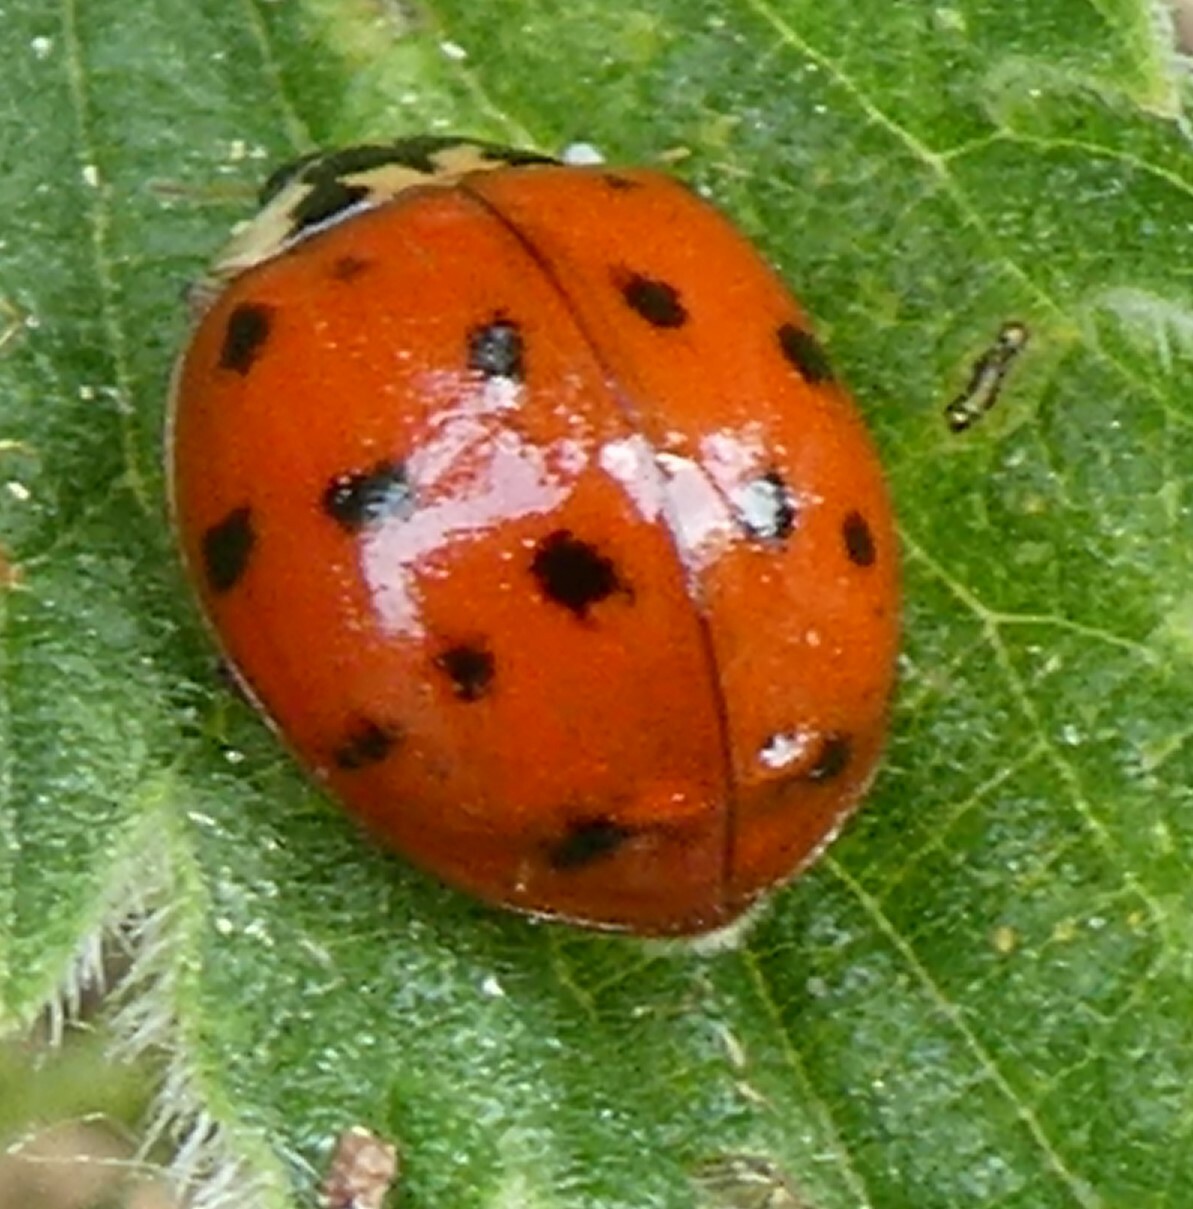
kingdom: Animalia
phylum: Arthropoda
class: Insecta
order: Coleoptera
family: Coccinellidae
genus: Harmonia
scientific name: Harmonia axyridis
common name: Harlequin ladybird
